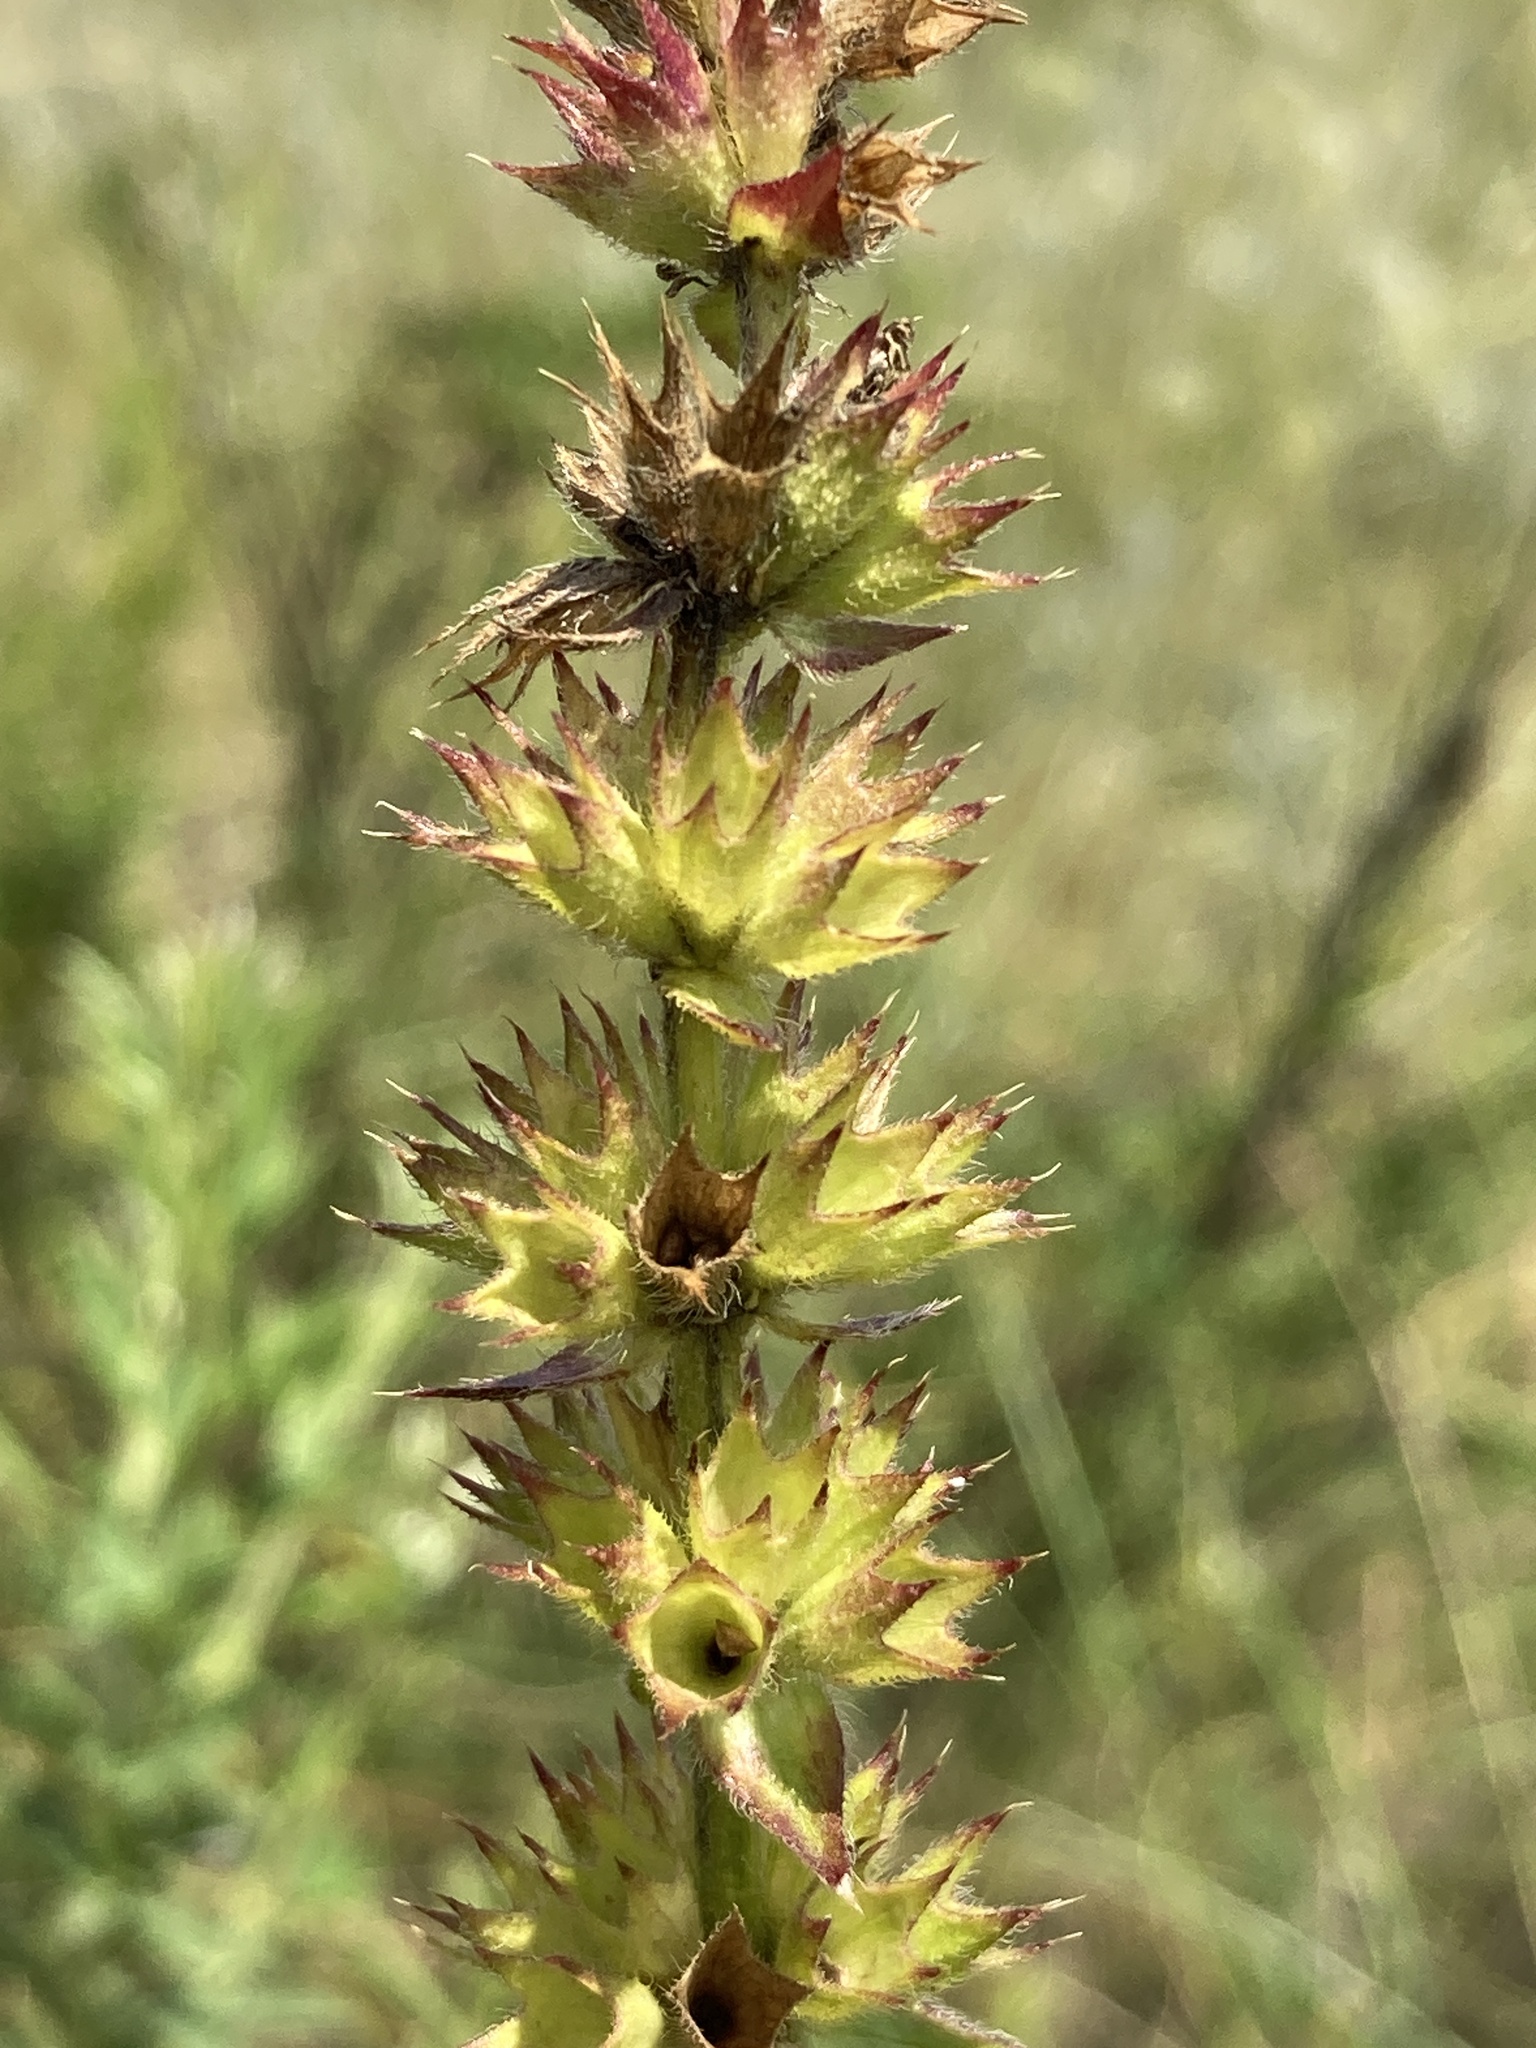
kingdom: Plantae
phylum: Tracheophyta
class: Magnoliopsida
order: Lamiales
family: Lamiaceae
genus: Stachys
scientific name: Stachys recta
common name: Perennial yellow-woundwort
